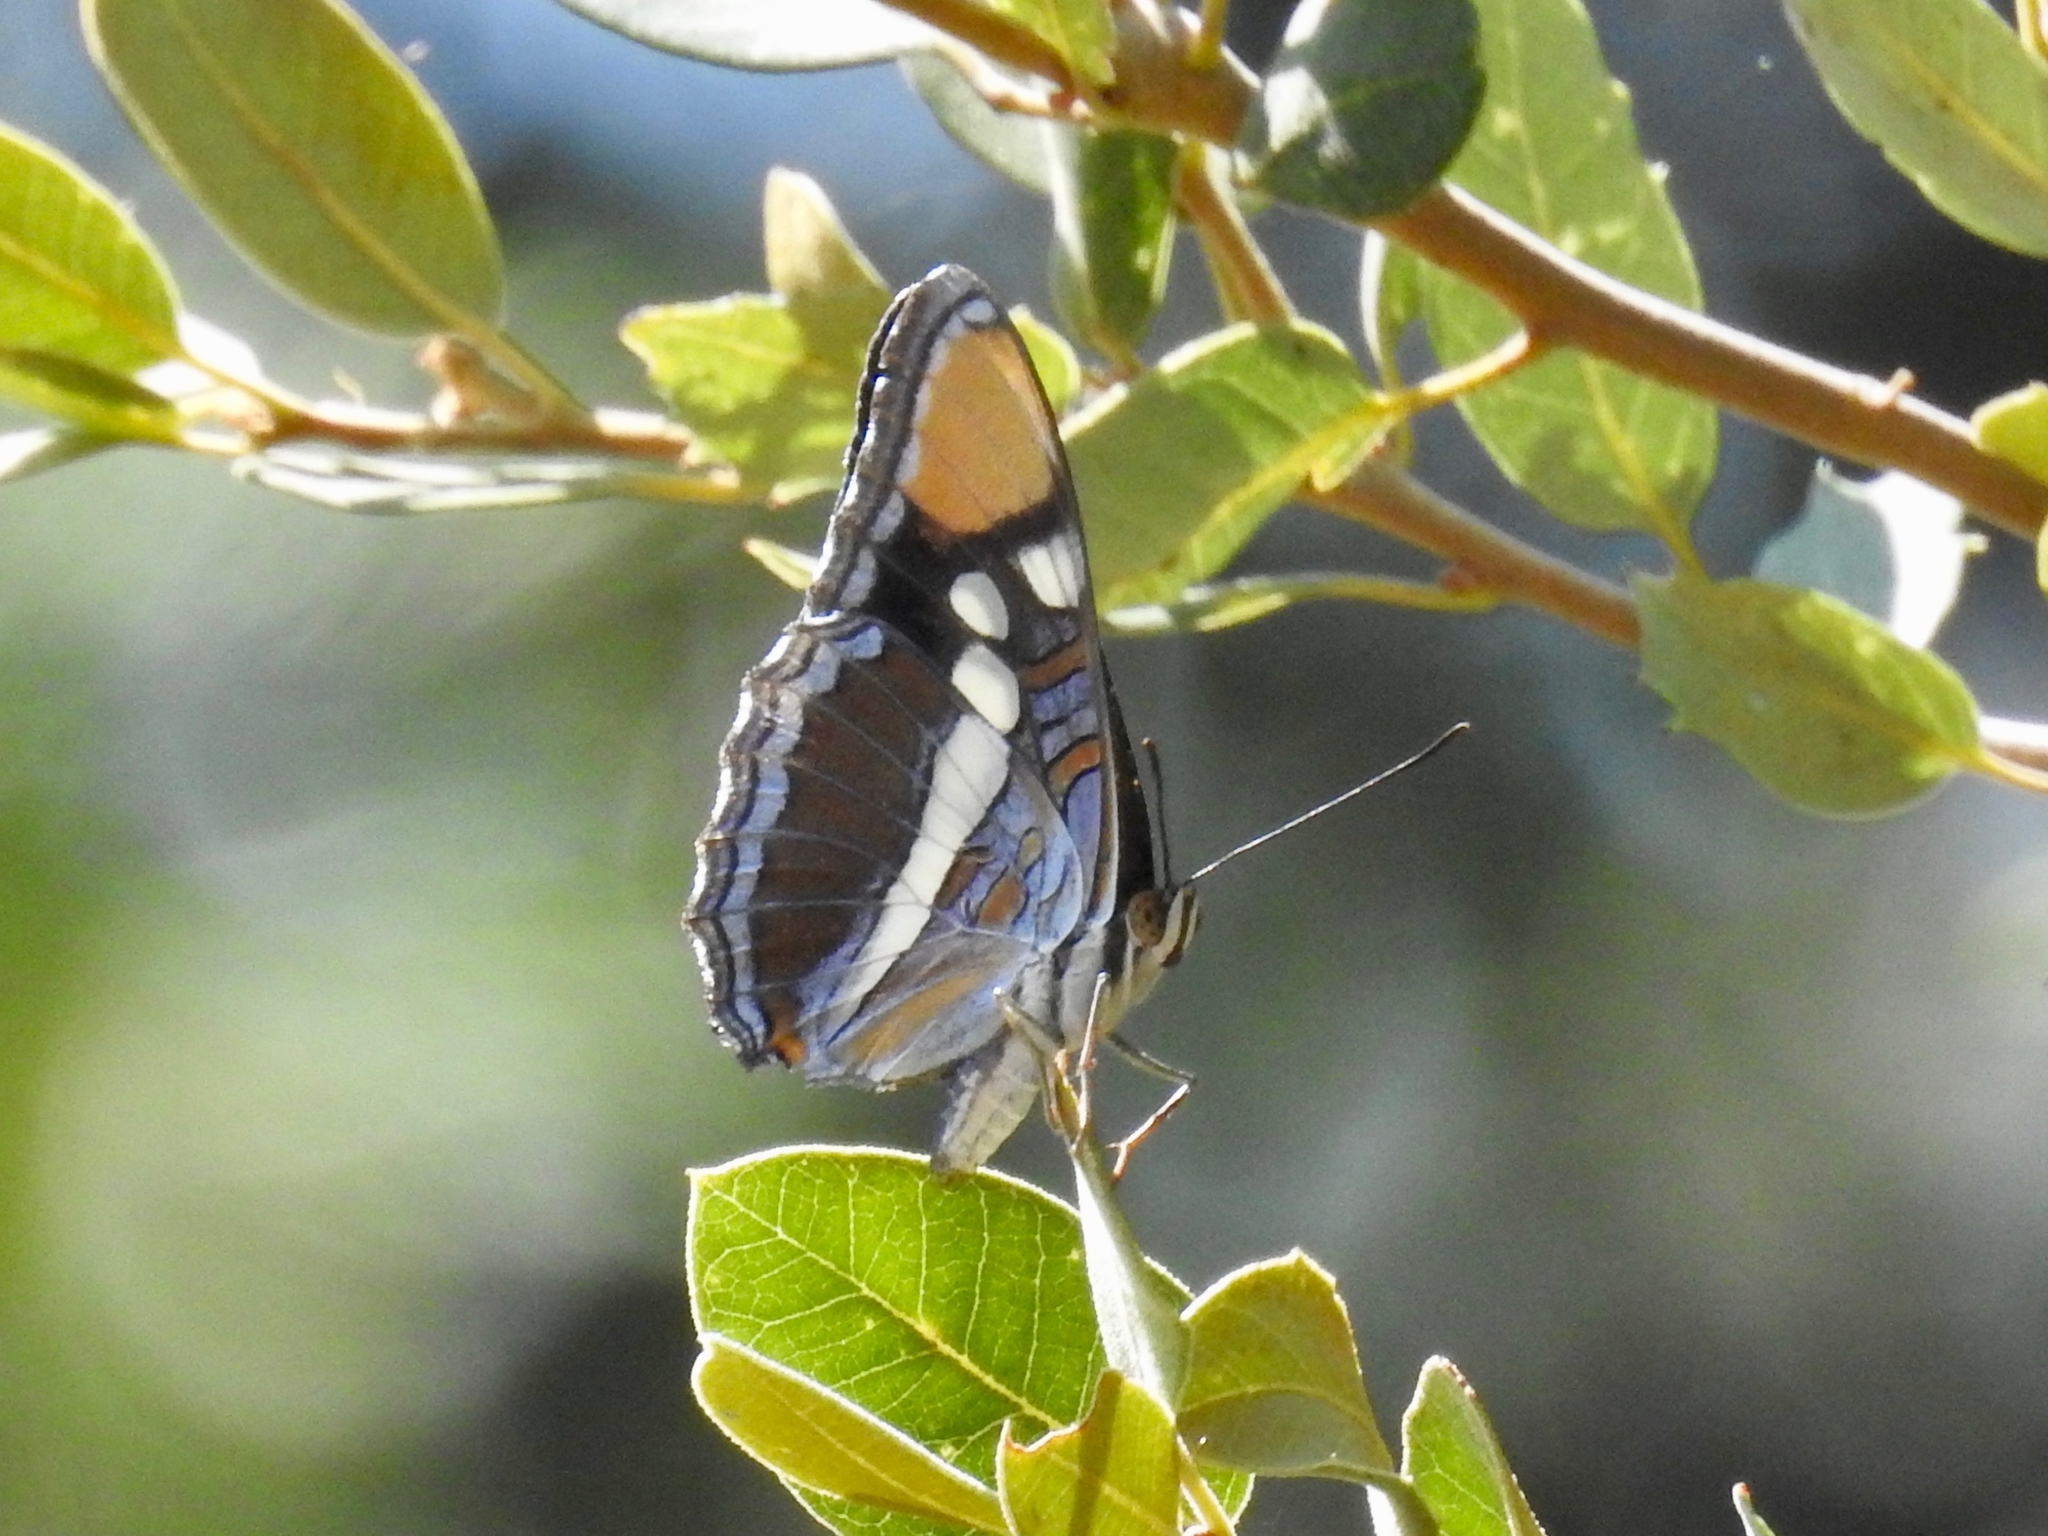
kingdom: Animalia
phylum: Arthropoda
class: Insecta
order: Lepidoptera
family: Nymphalidae
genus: Limenitis
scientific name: Limenitis bredowii
